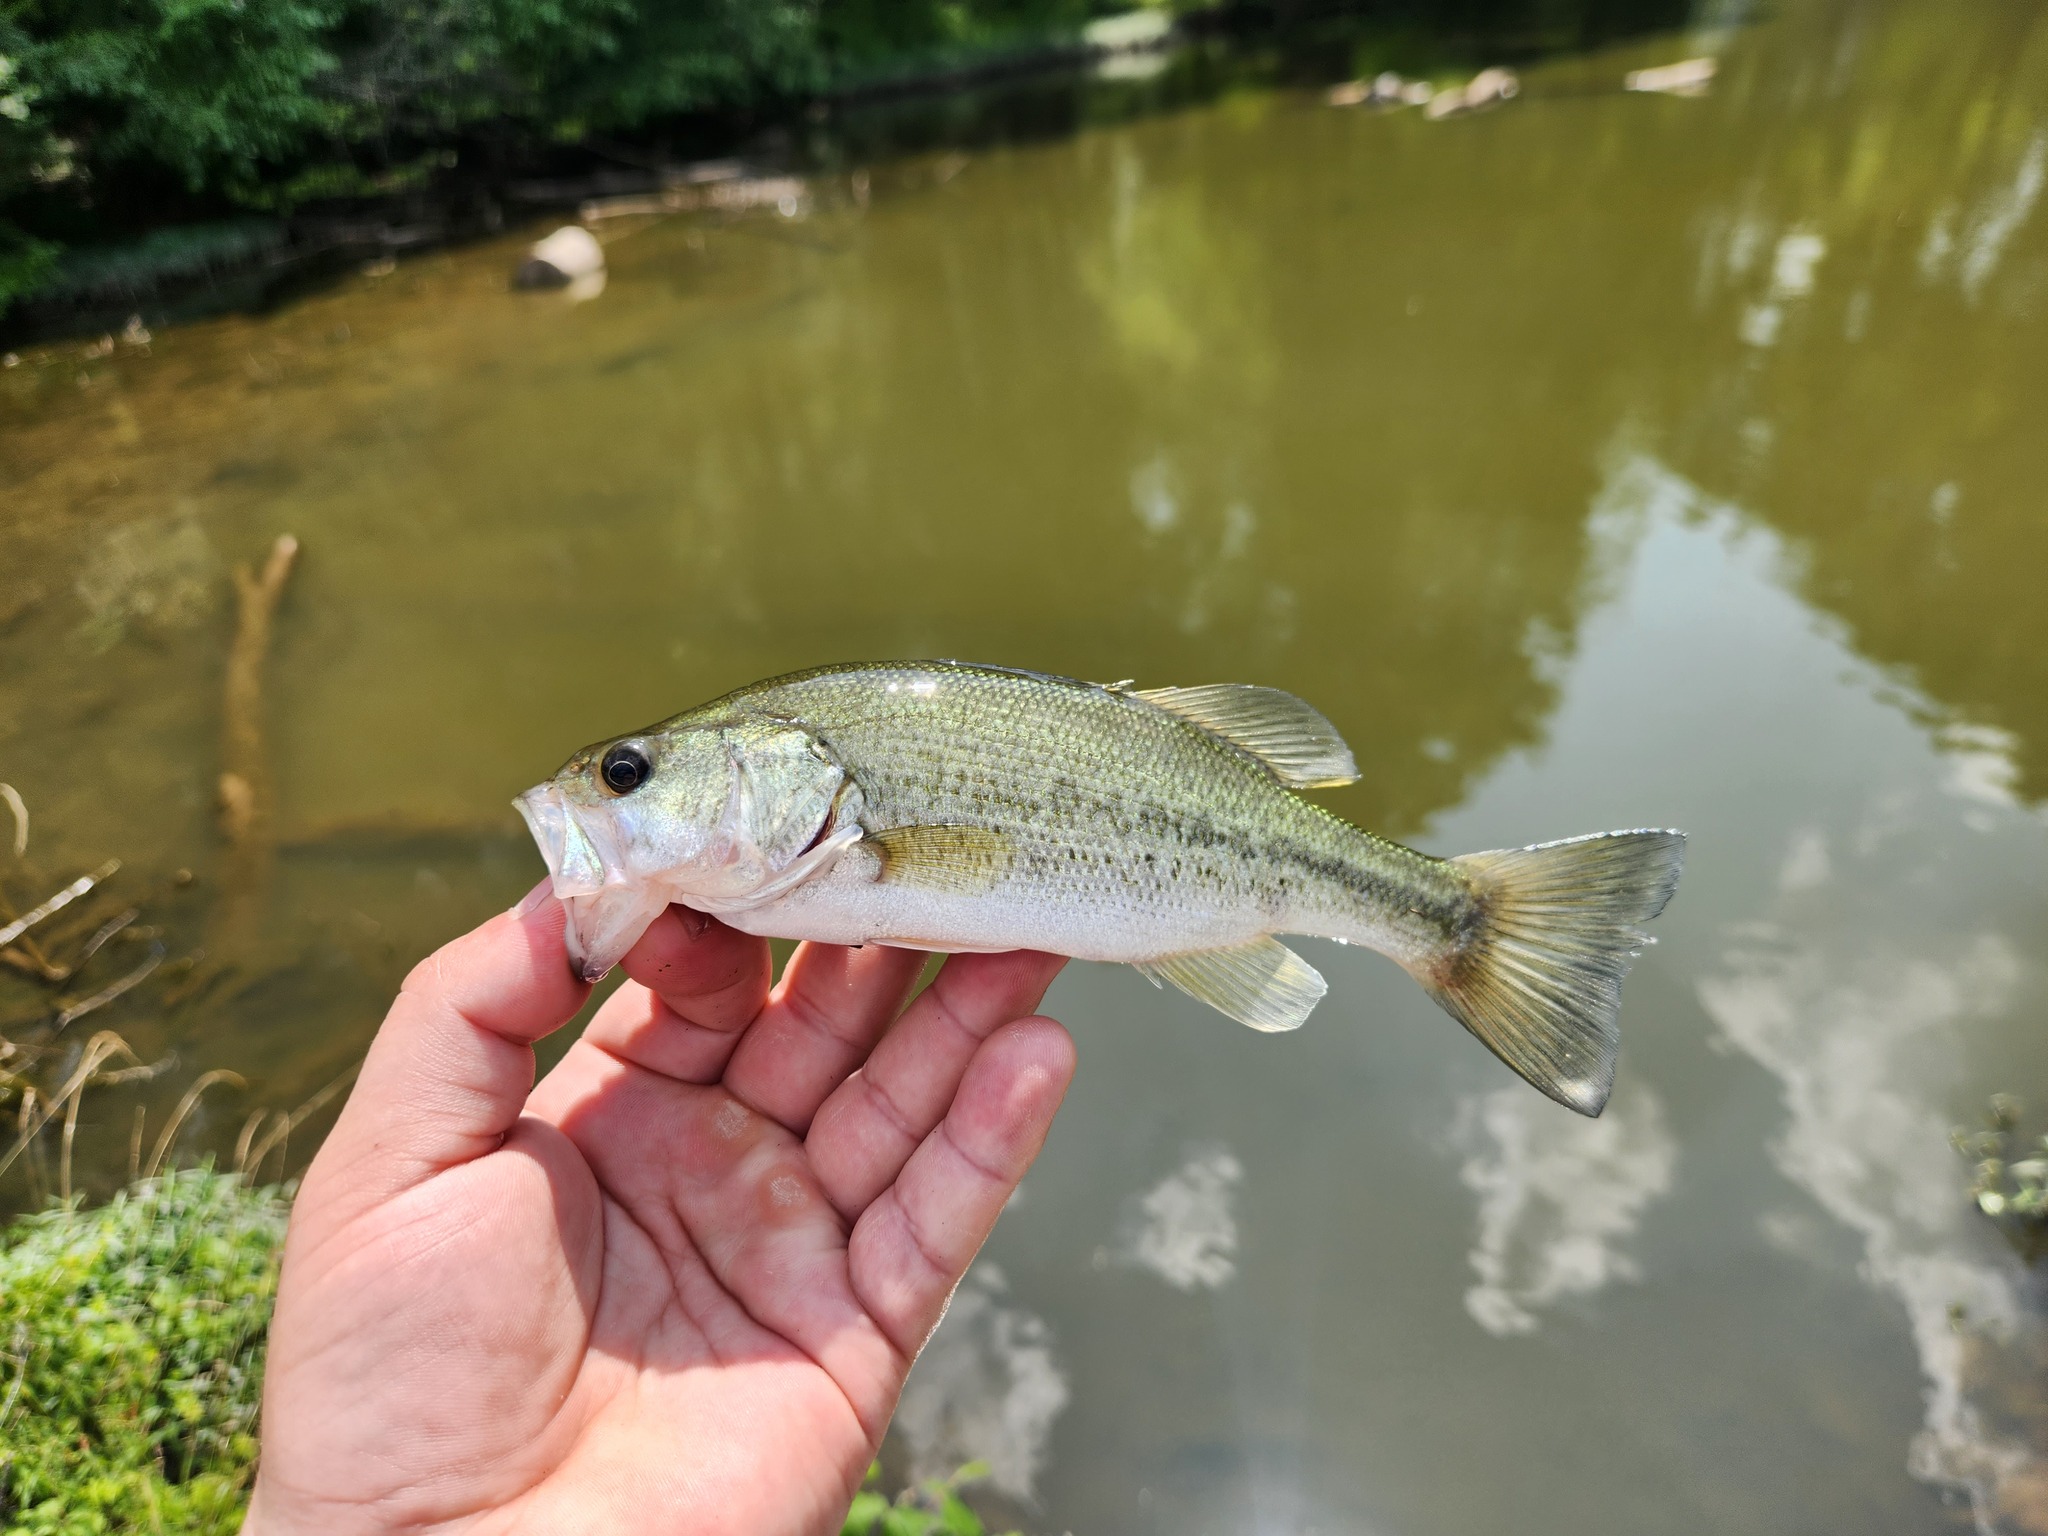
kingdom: Animalia
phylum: Chordata
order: Perciformes
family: Centrarchidae
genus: Micropterus
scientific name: Micropterus
